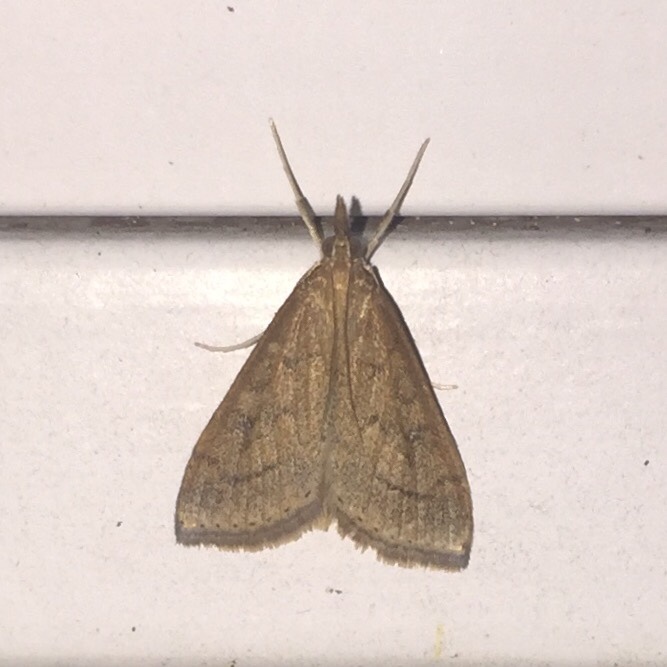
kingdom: Animalia
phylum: Arthropoda
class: Insecta
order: Lepidoptera
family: Crambidae
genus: Udea
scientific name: Udea rubigalis
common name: Celery leaftier moth
